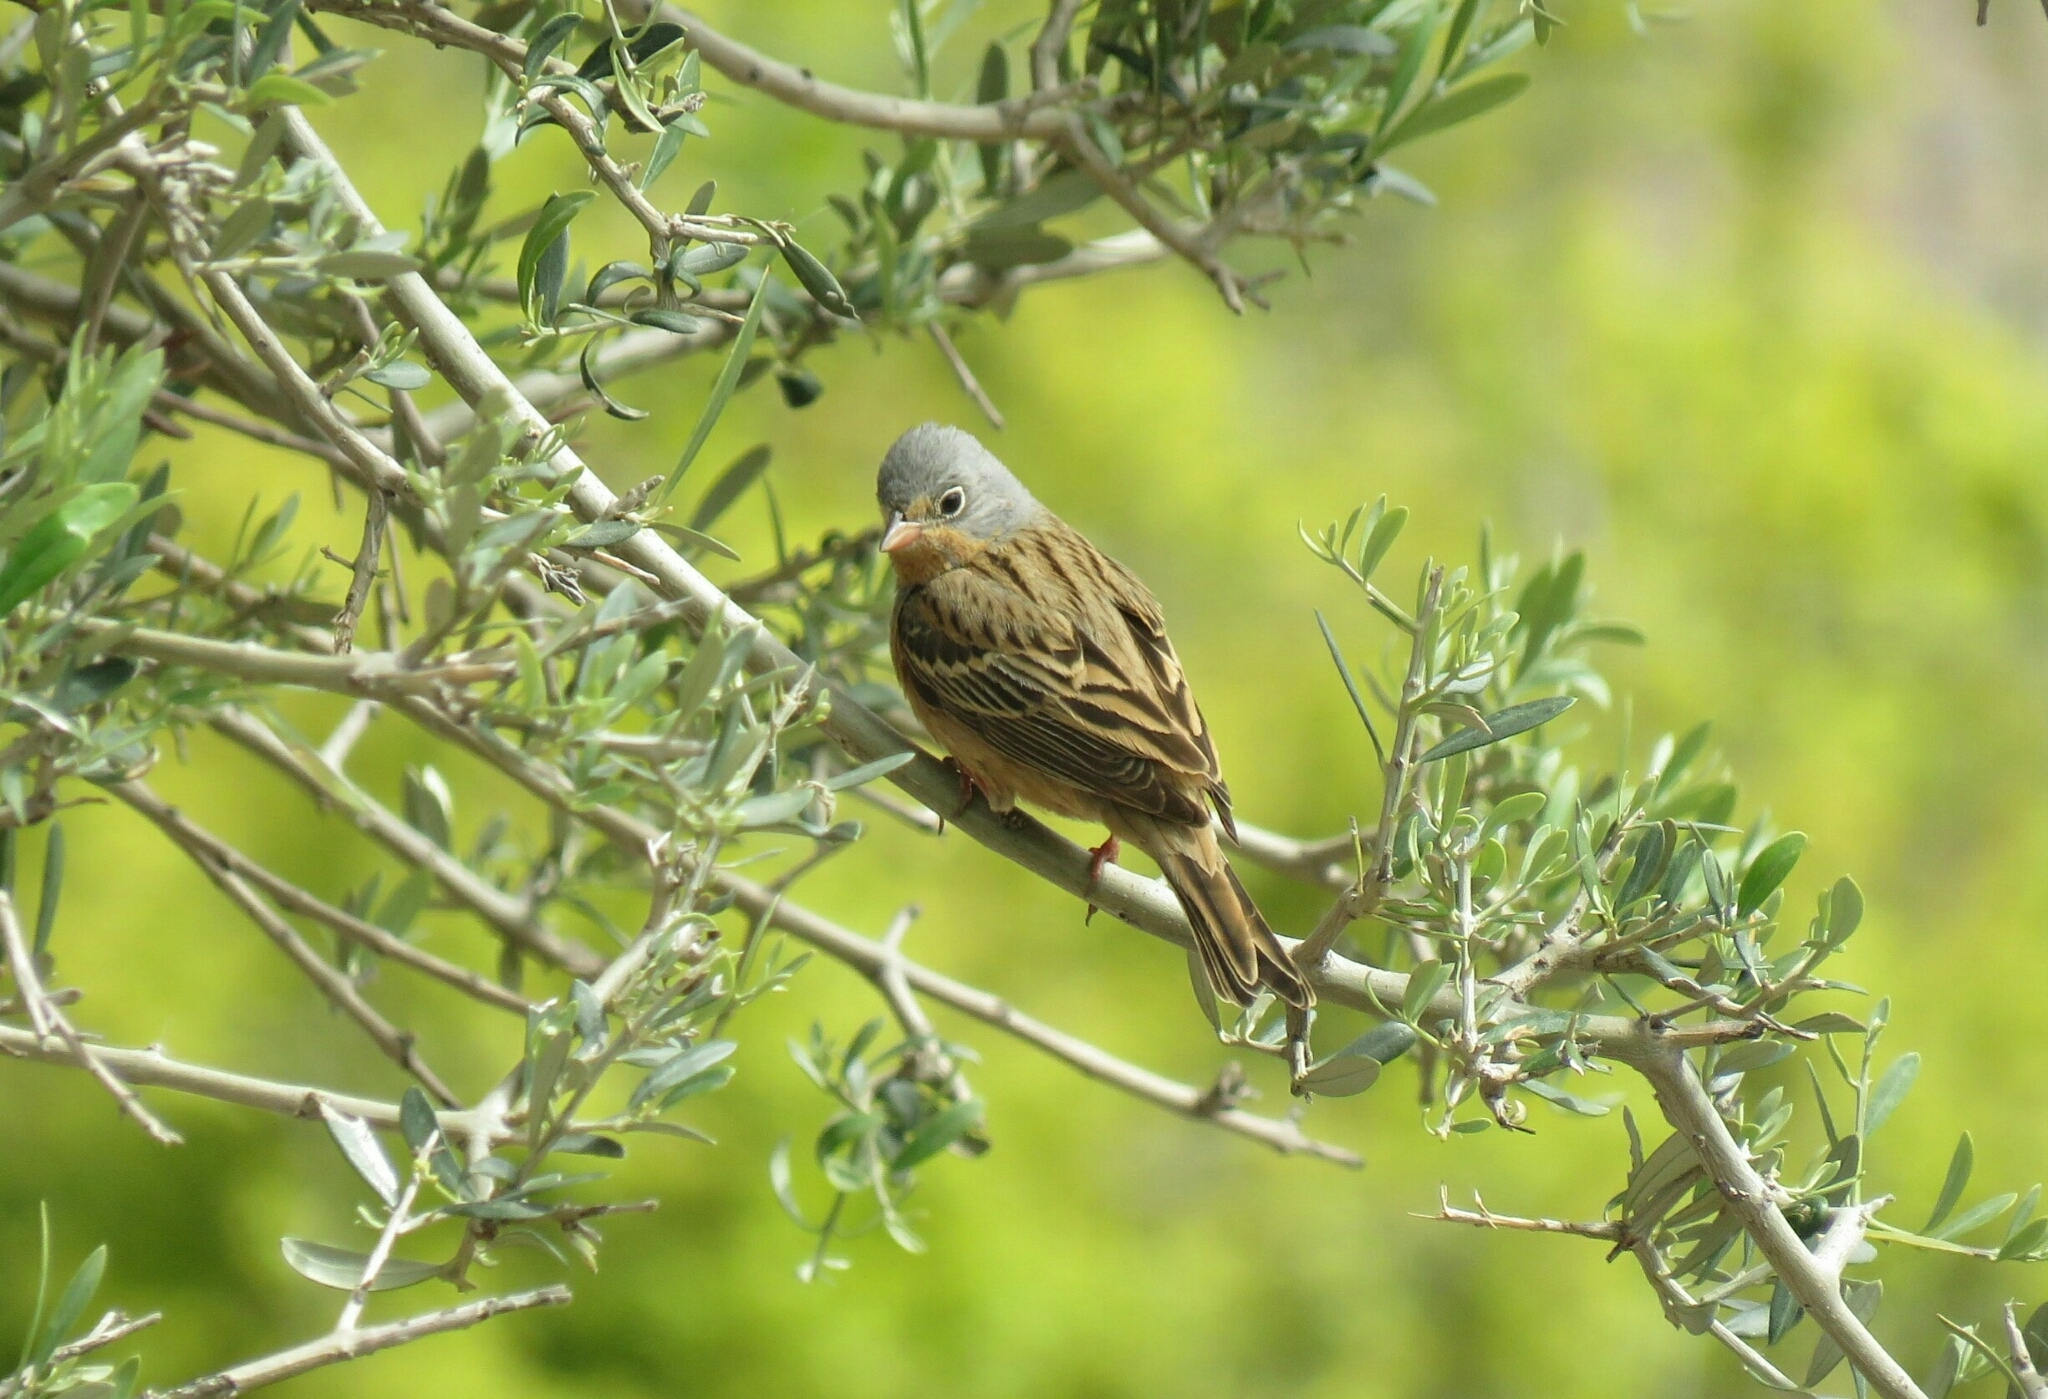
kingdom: Animalia
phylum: Chordata
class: Aves
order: Passeriformes
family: Emberizidae
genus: Emberiza
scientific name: Emberiza caesia
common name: Cretzschmar's bunting
